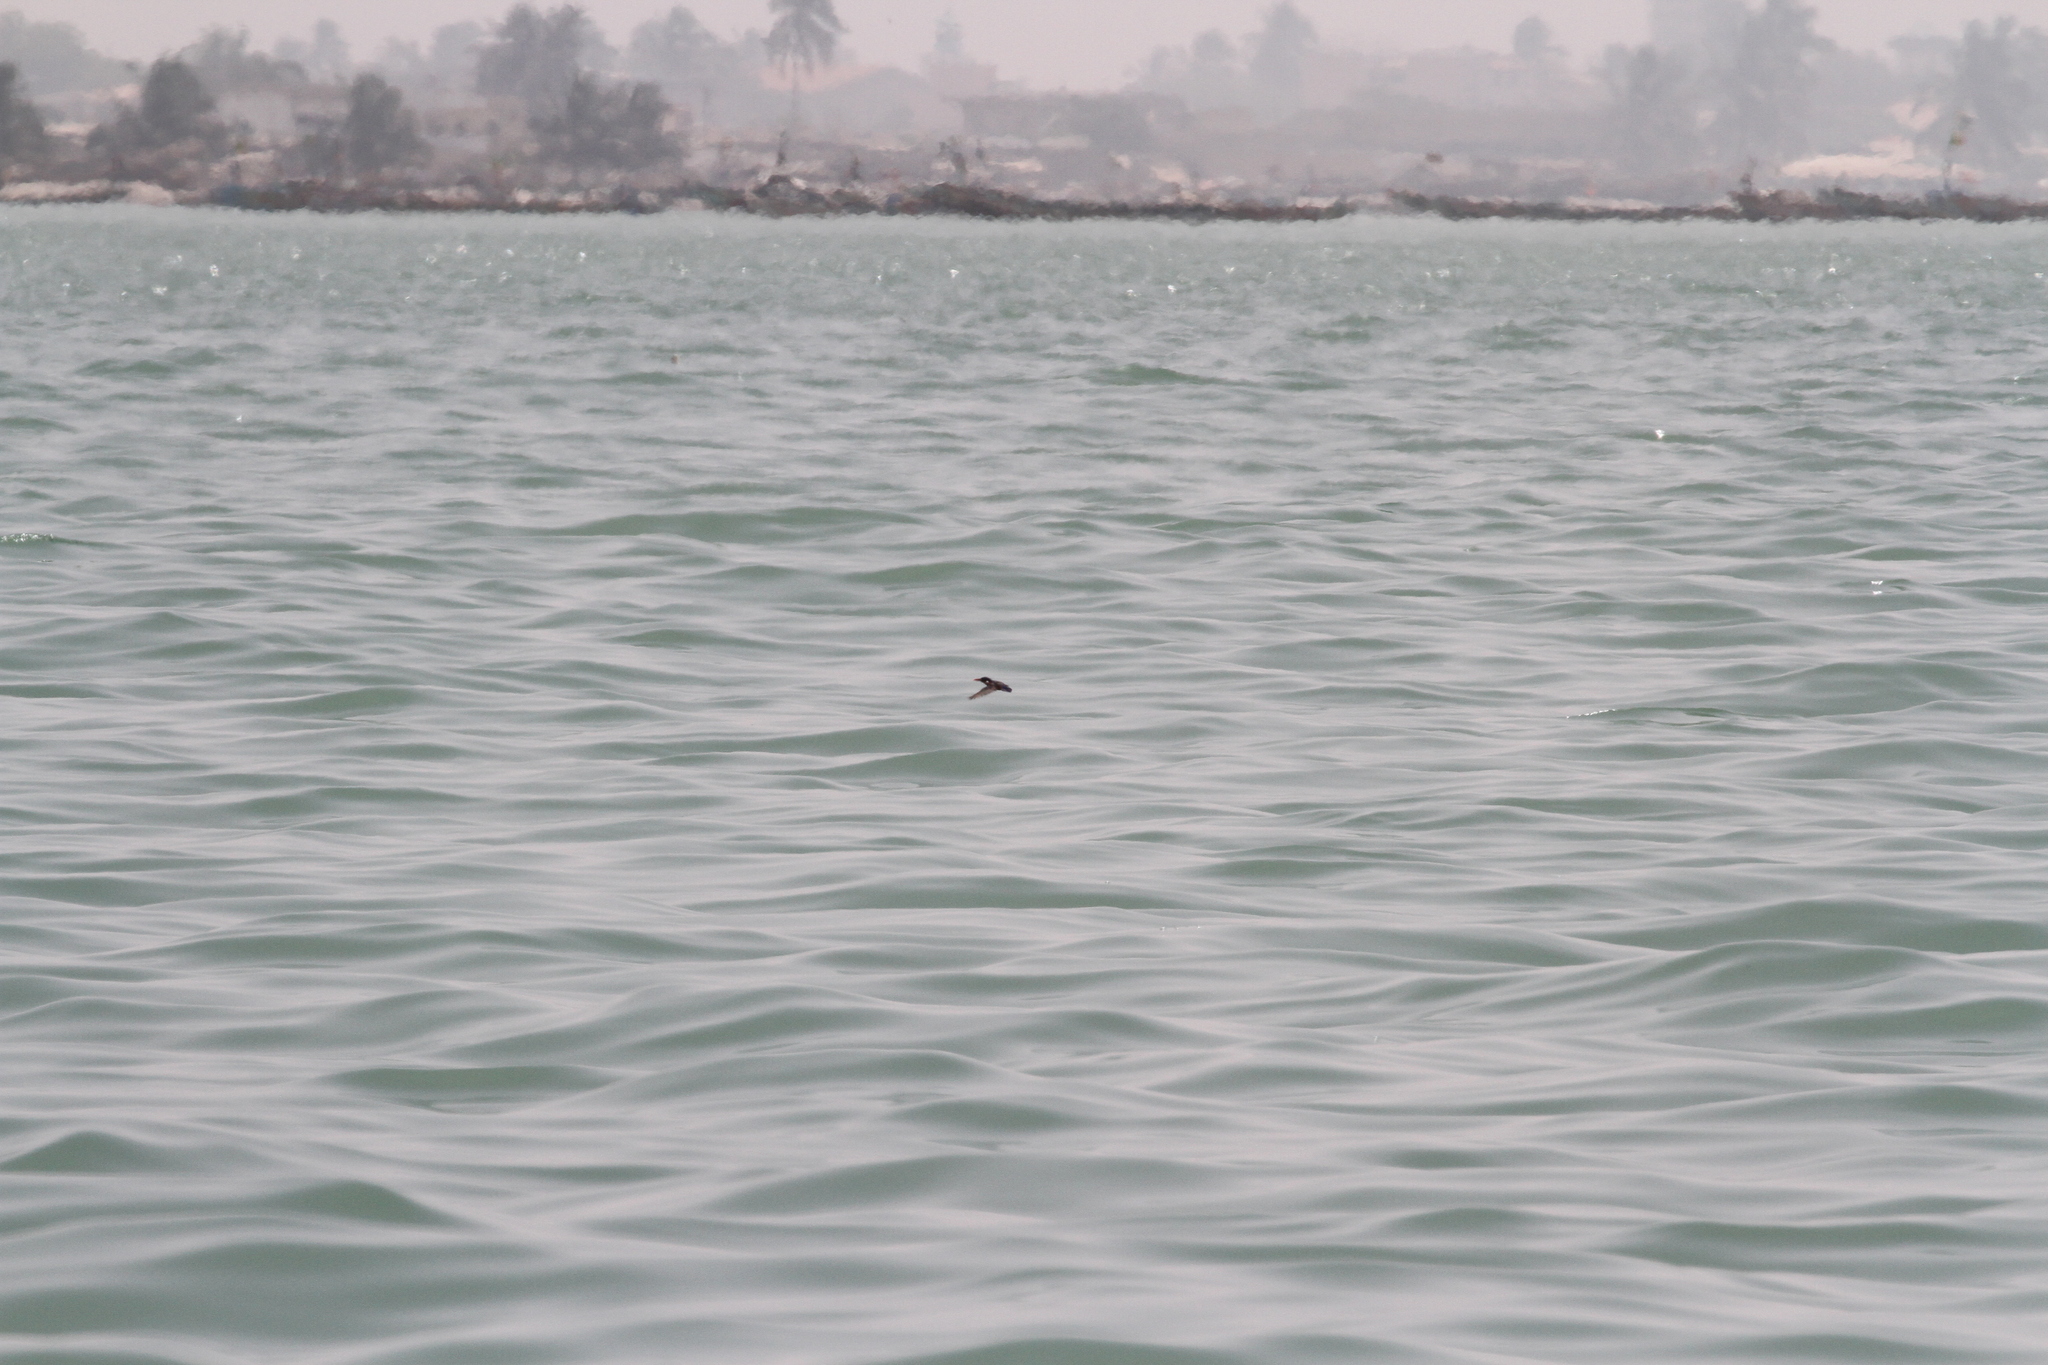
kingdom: Animalia
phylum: Chordata
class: Aves
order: Coraciiformes
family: Alcedinidae
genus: Corythornis
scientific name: Corythornis cristatus
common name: Malachite kingfisher
